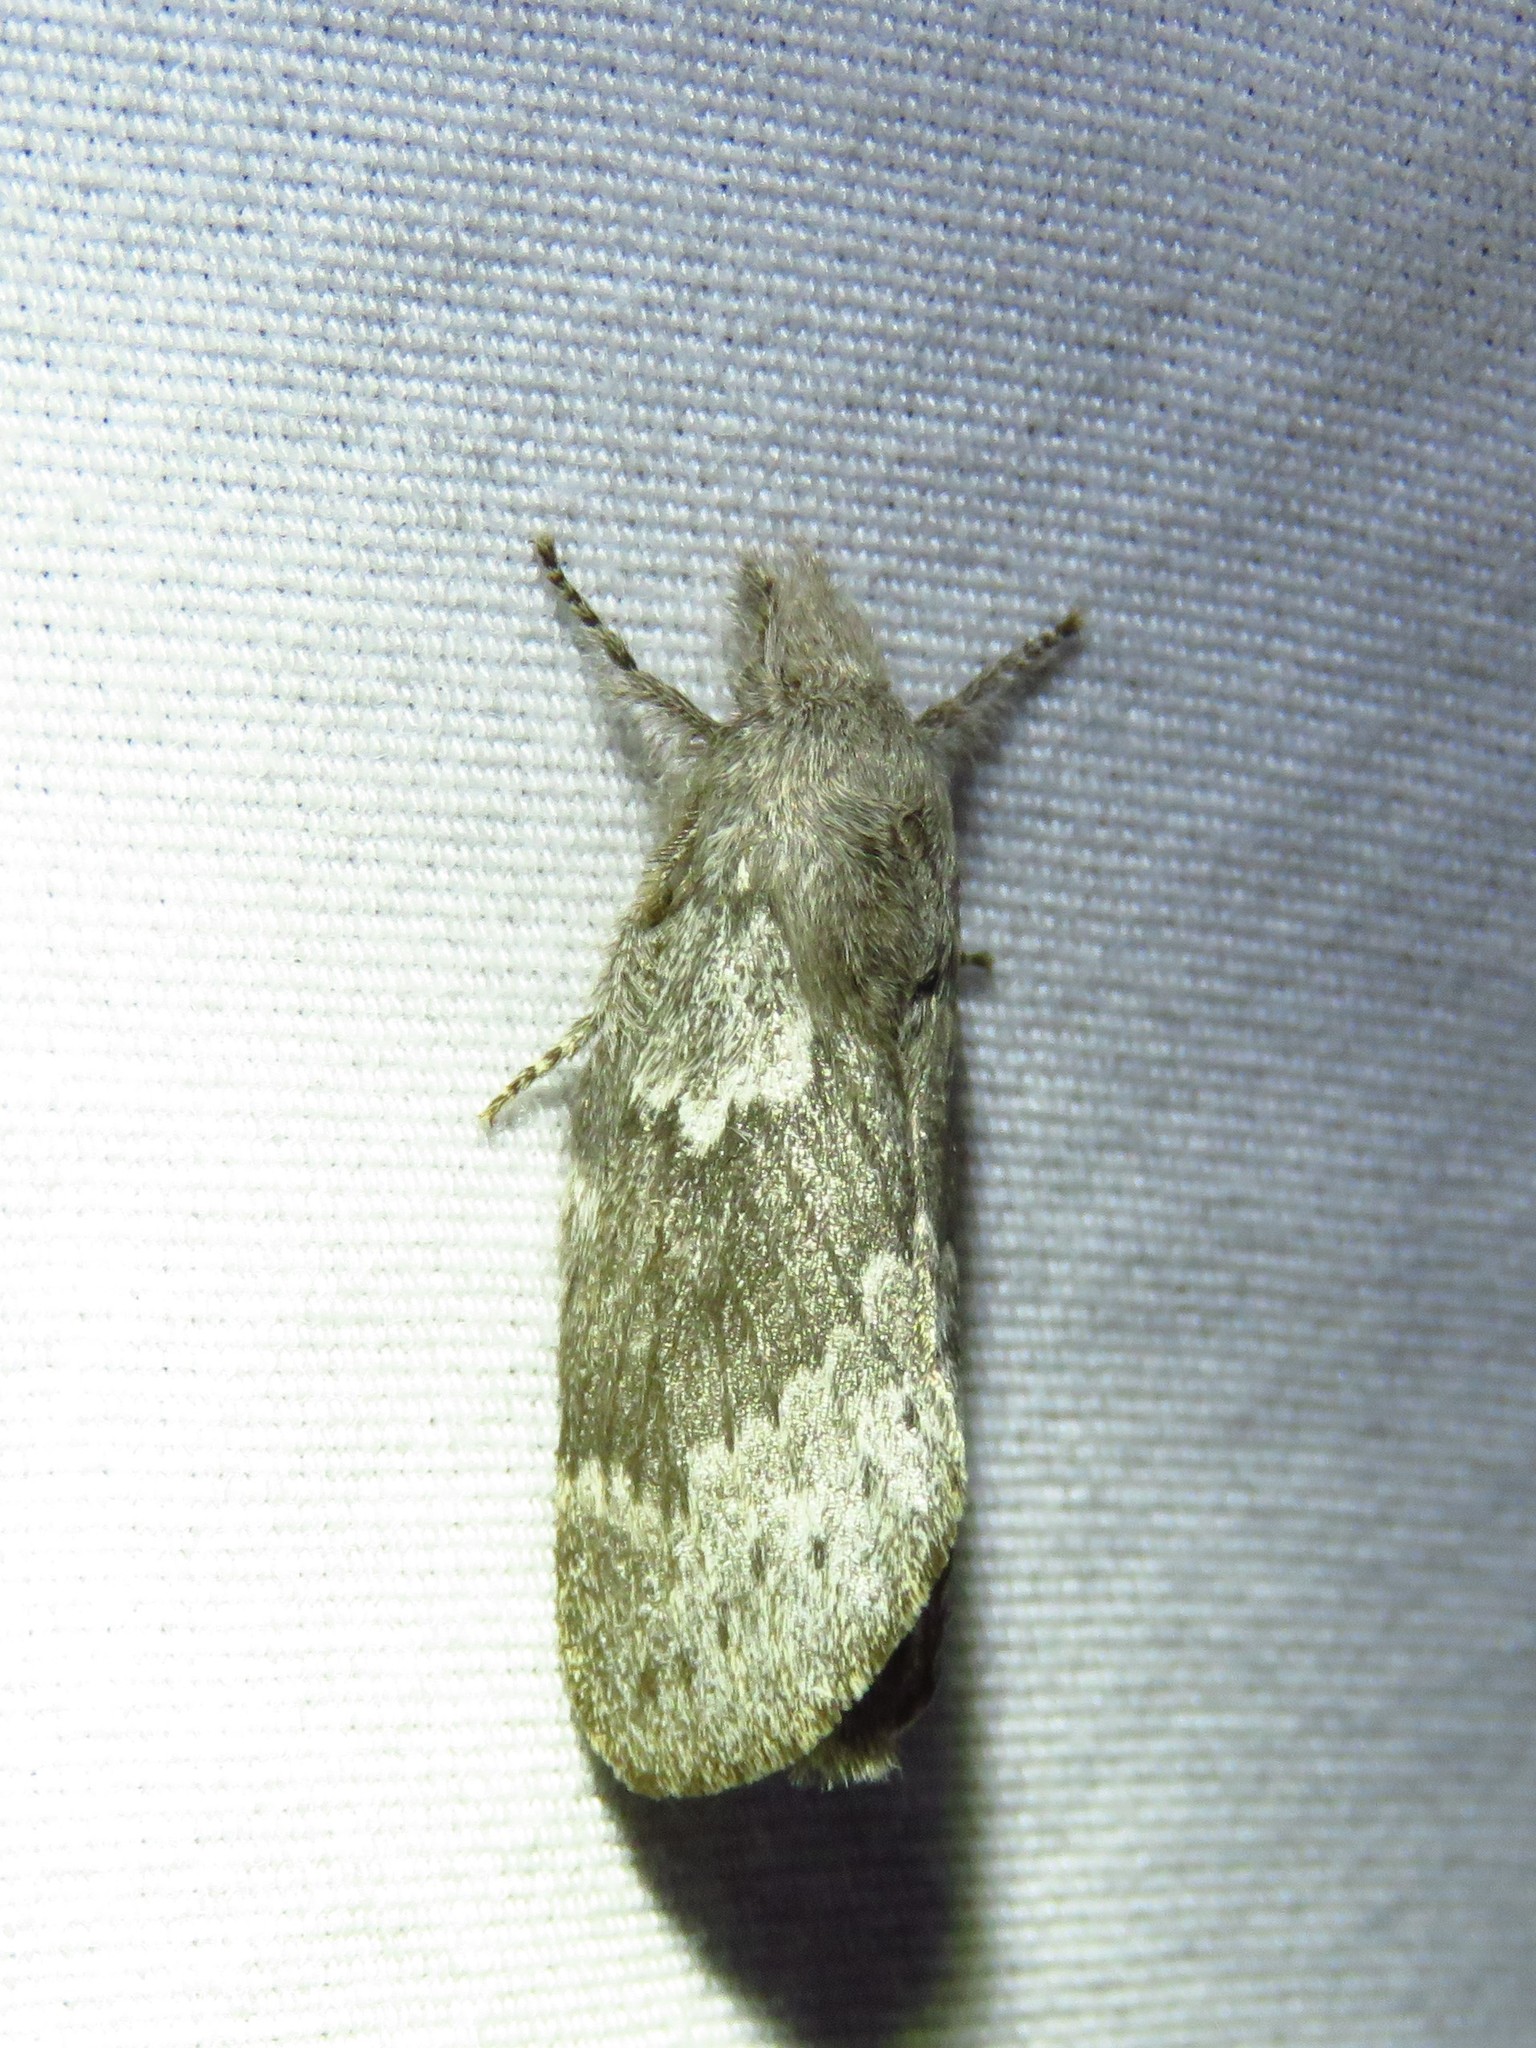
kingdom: Animalia
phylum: Arthropoda
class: Insecta
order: Lepidoptera
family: Lasiocampidae
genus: Heteropacha
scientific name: Heteropacha rileyana
